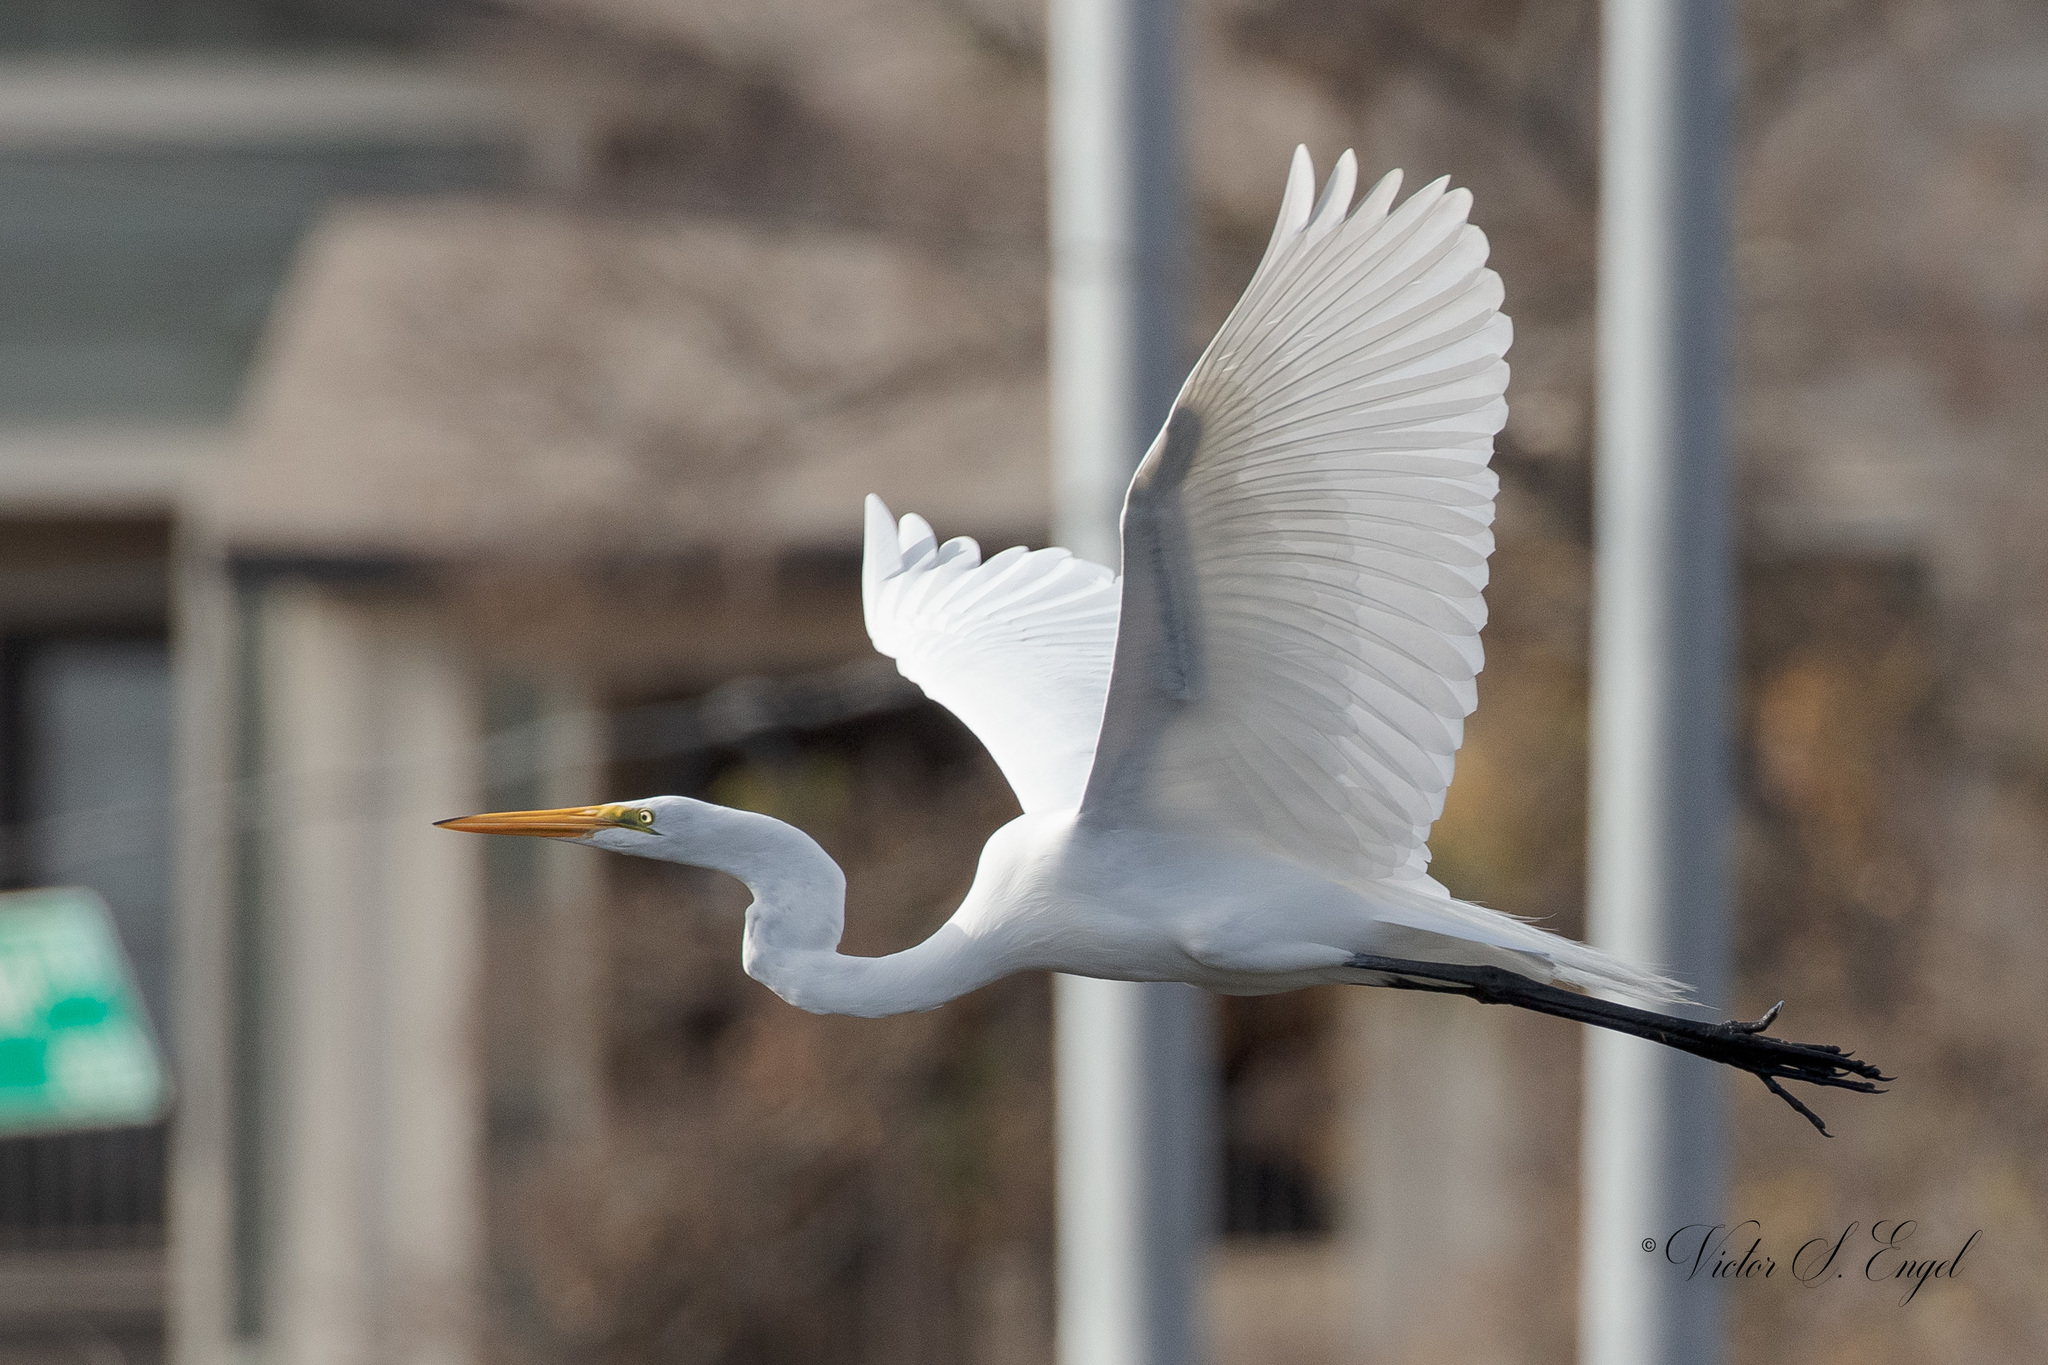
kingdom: Animalia
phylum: Chordata
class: Aves
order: Pelecaniformes
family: Ardeidae
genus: Ardea
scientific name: Ardea alba
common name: Great egret
